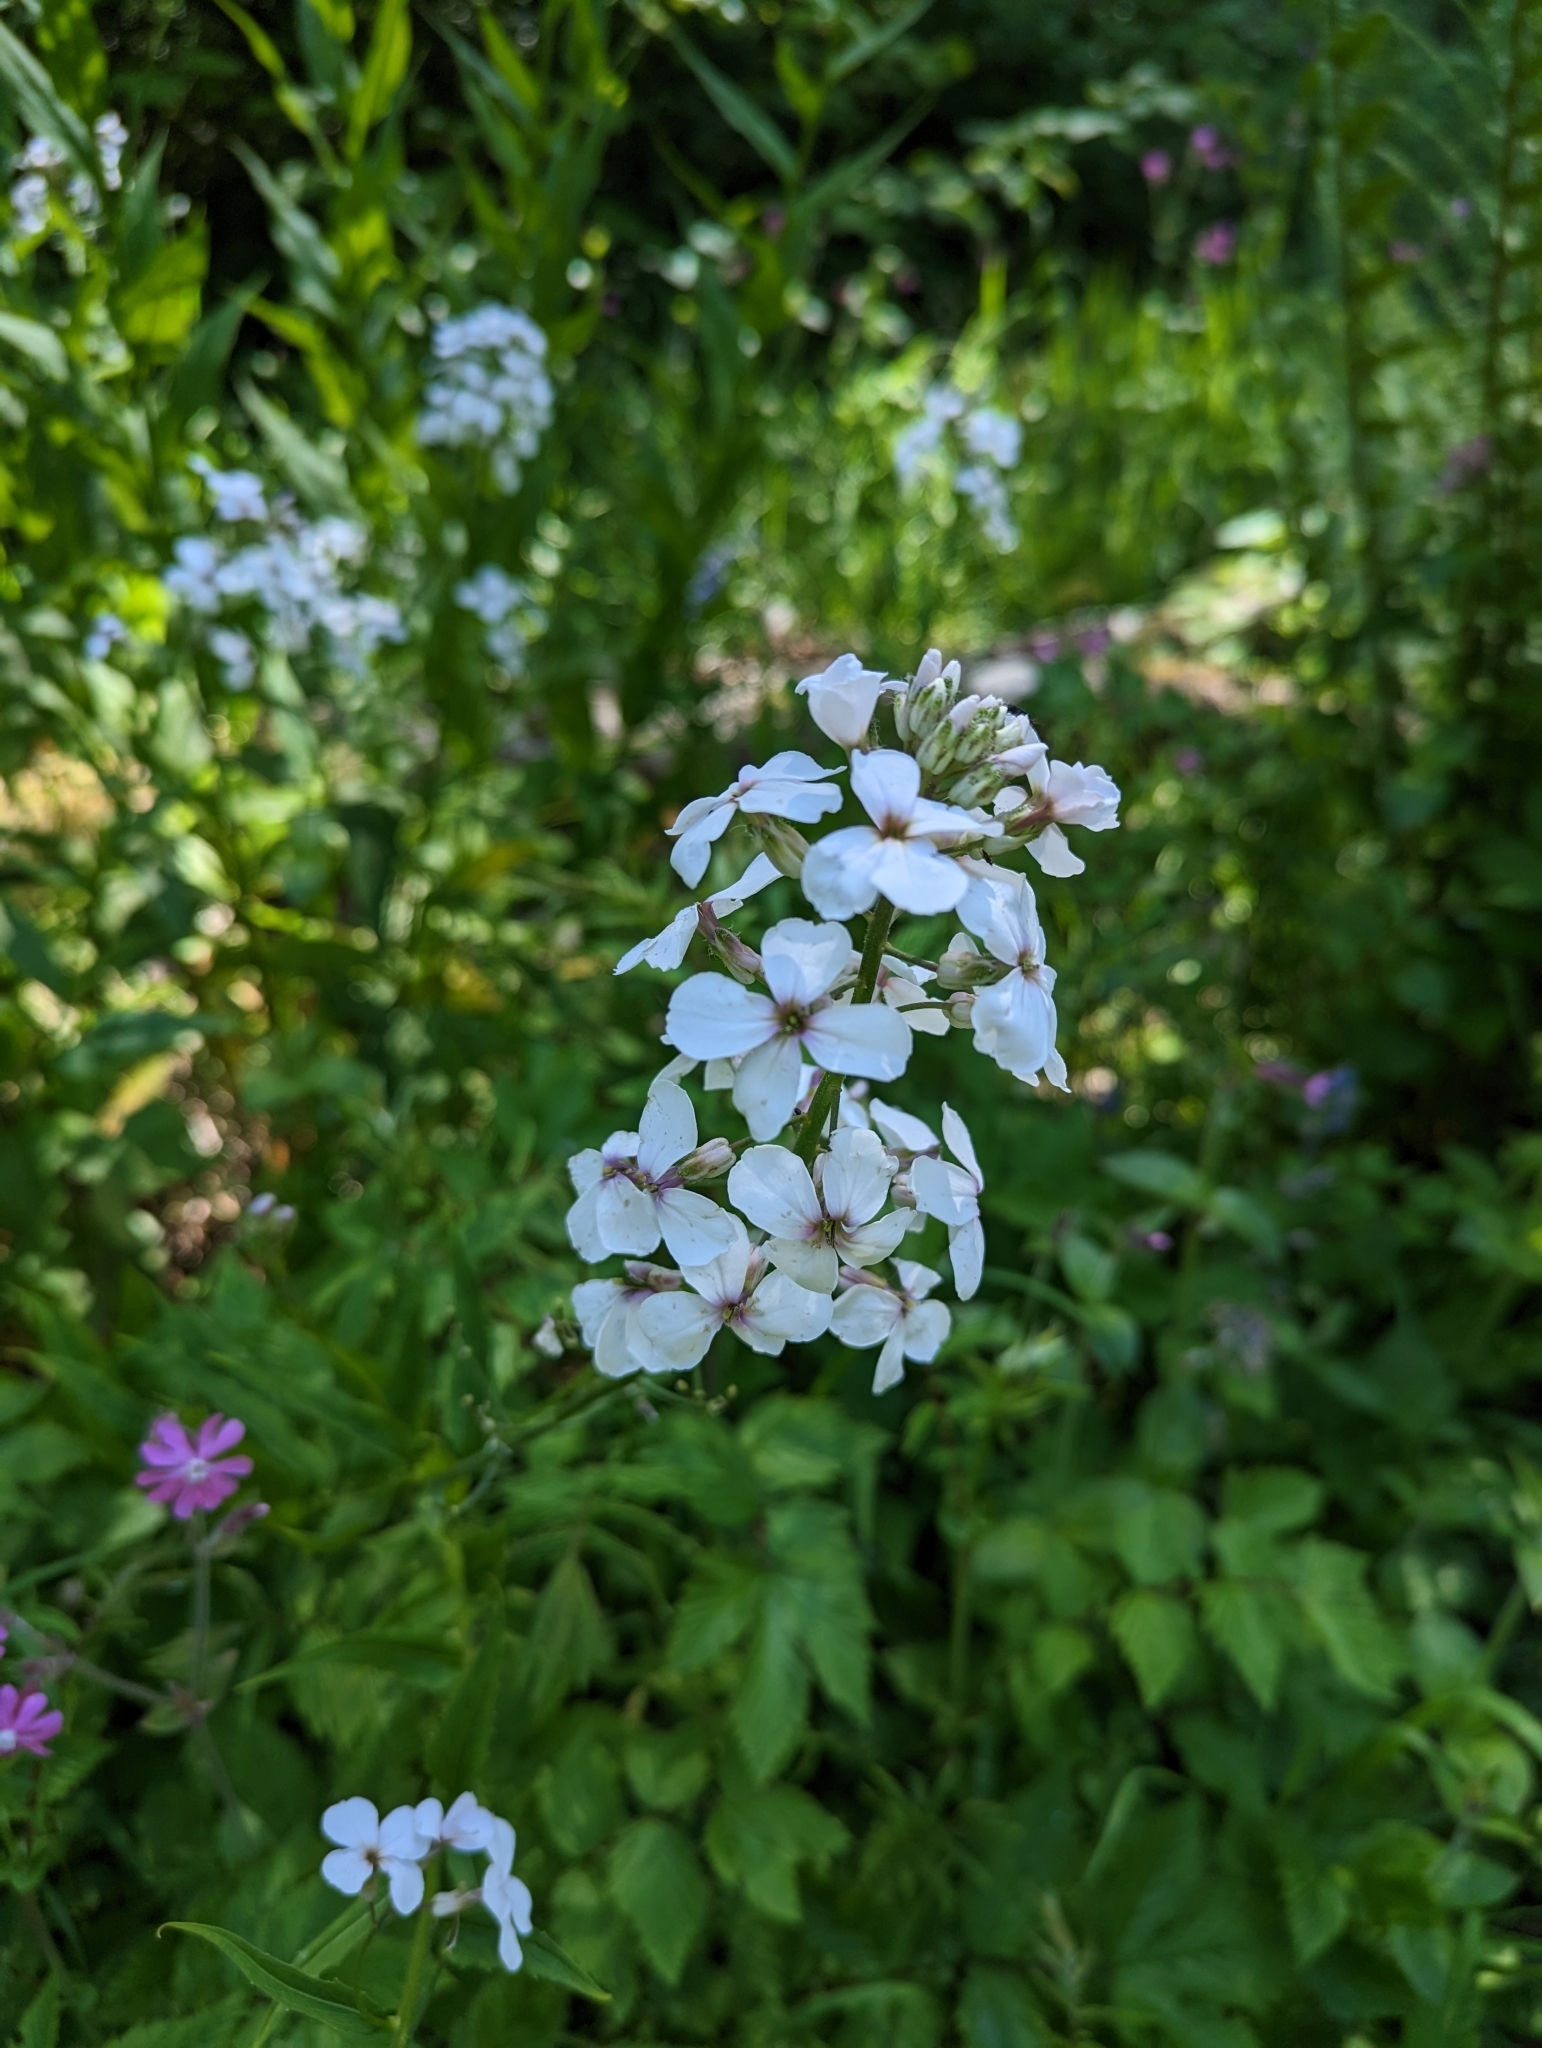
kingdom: Plantae
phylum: Tracheophyta
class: Magnoliopsida
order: Brassicales
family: Brassicaceae
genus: Hesperis
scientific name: Hesperis matronalis
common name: Dame's-violet
